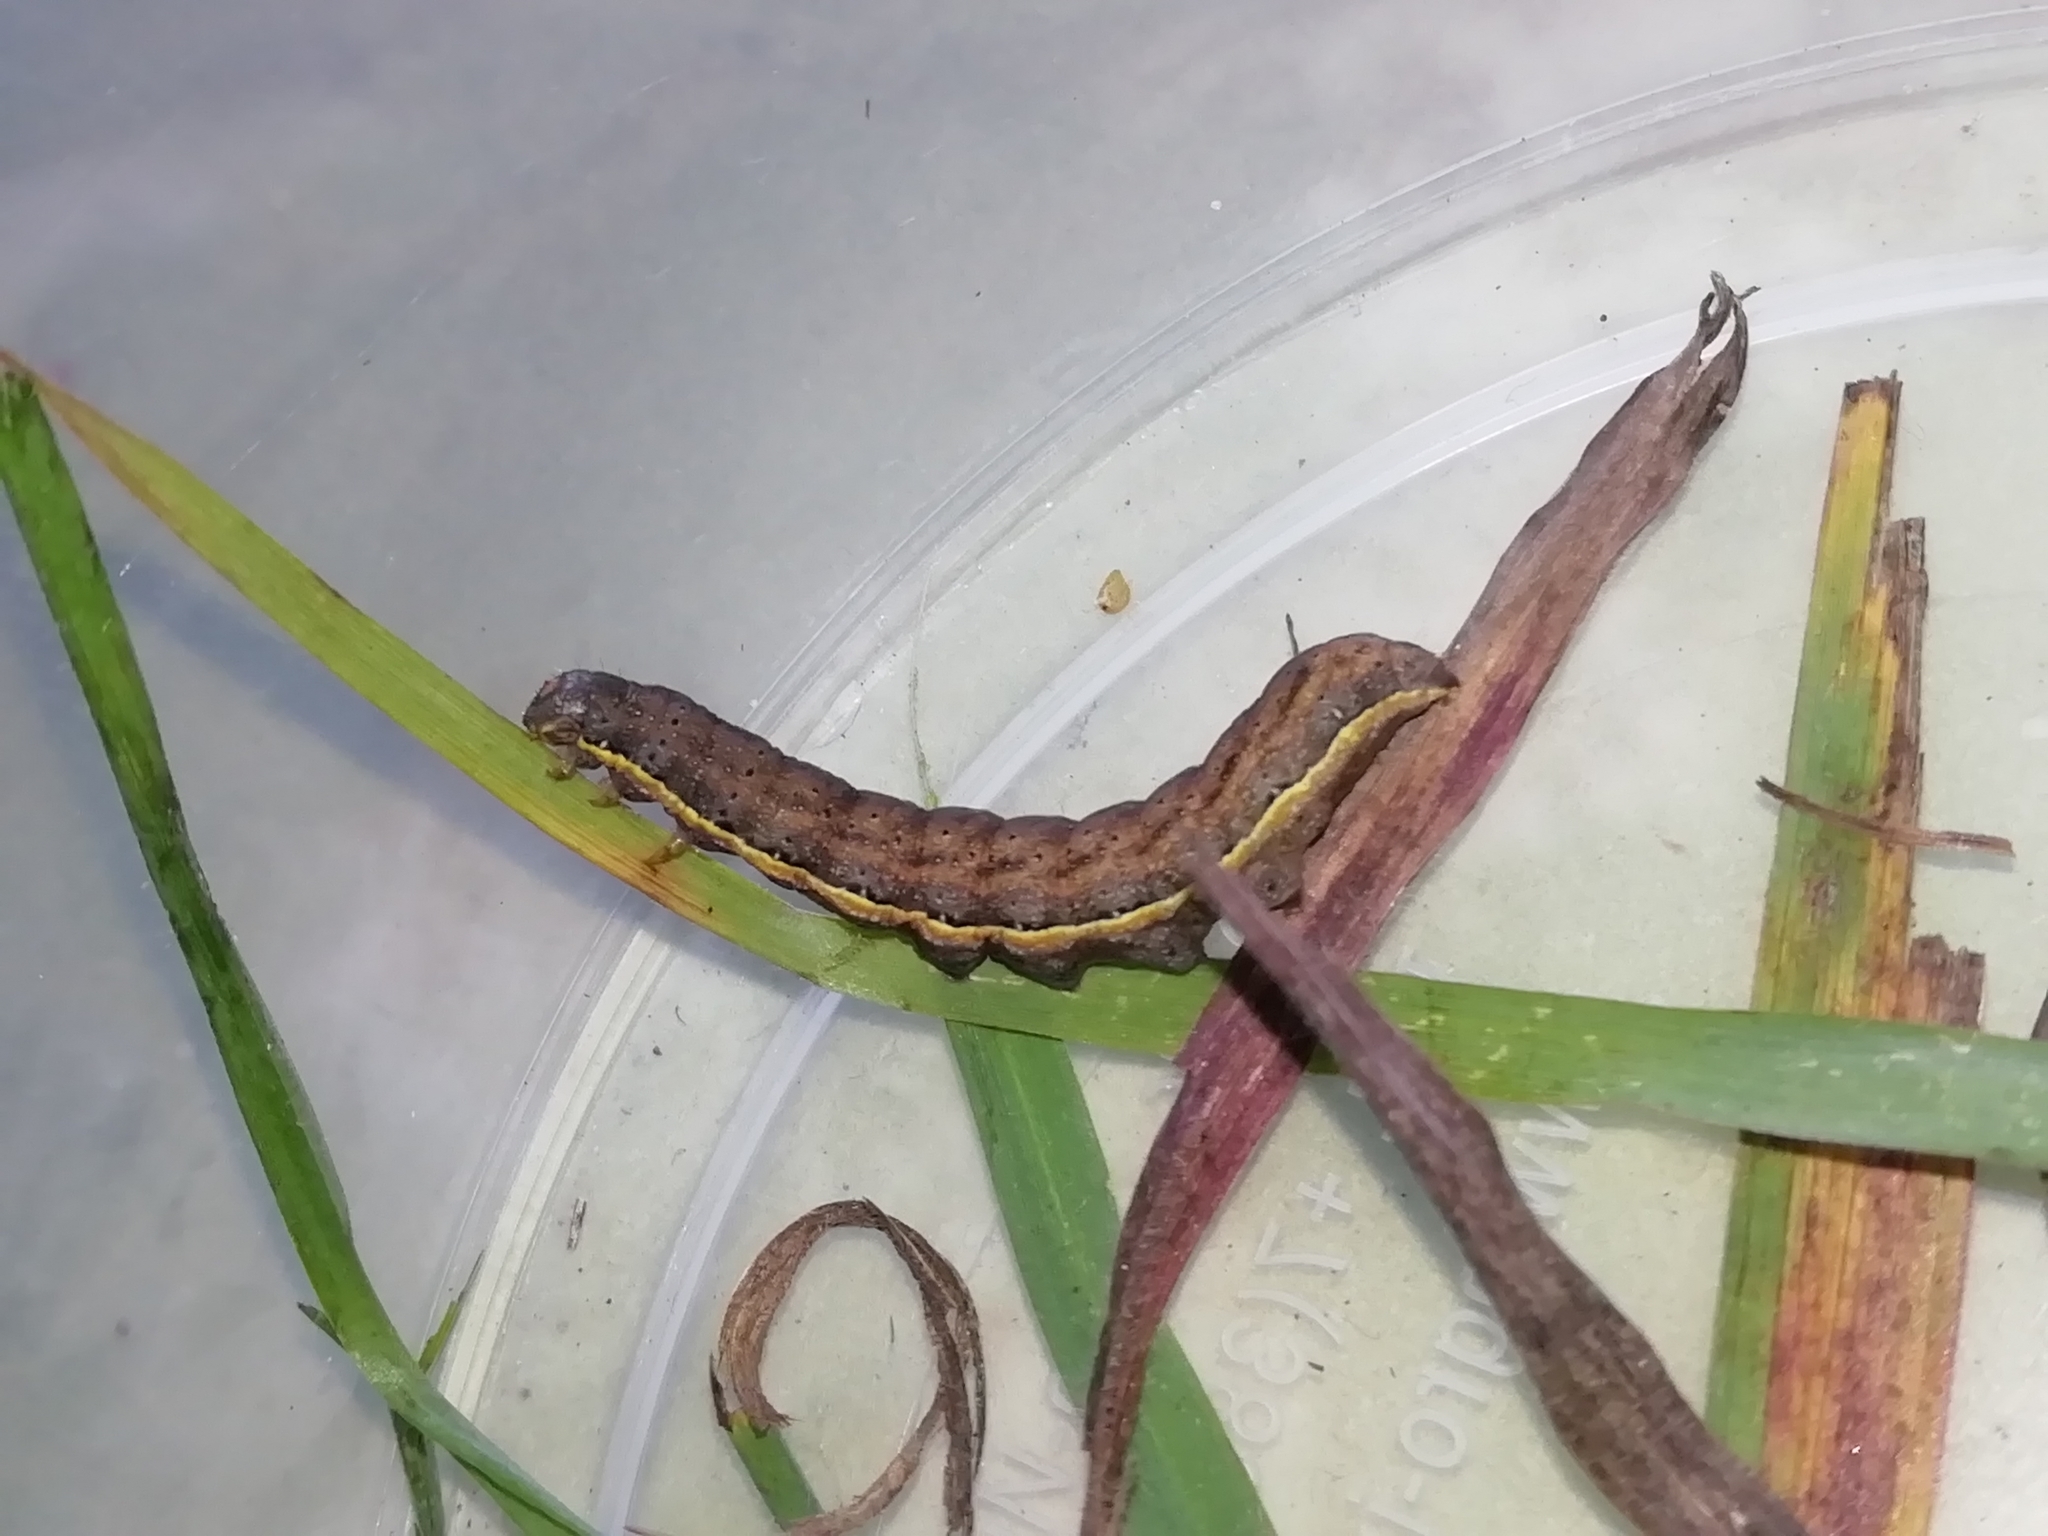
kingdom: Animalia
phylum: Arthropoda
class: Insecta
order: Lepidoptera
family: Noctuidae
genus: Lacanobia
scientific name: Lacanobia oleracea
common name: Bright-line brown-eye
